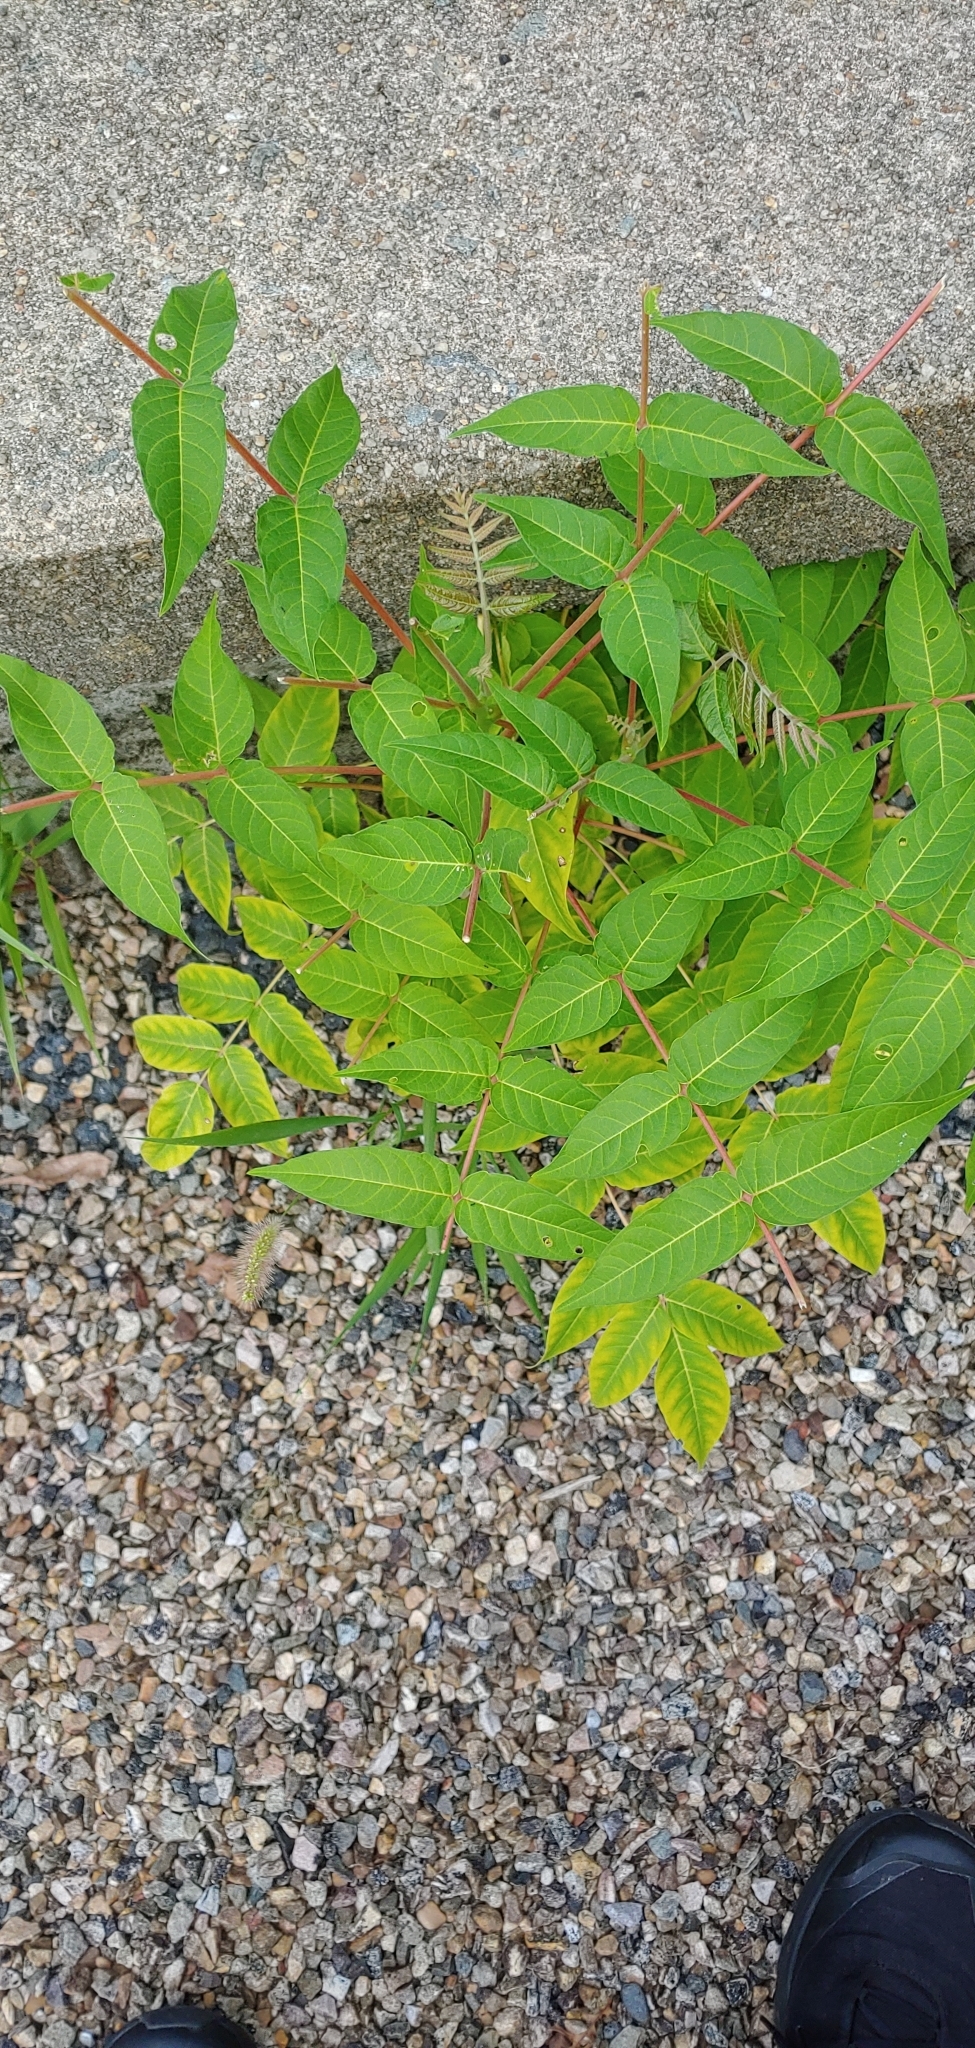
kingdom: Plantae
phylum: Tracheophyta
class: Magnoliopsida
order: Sapindales
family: Simaroubaceae
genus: Ailanthus
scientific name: Ailanthus altissima
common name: Tree-of-heaven
